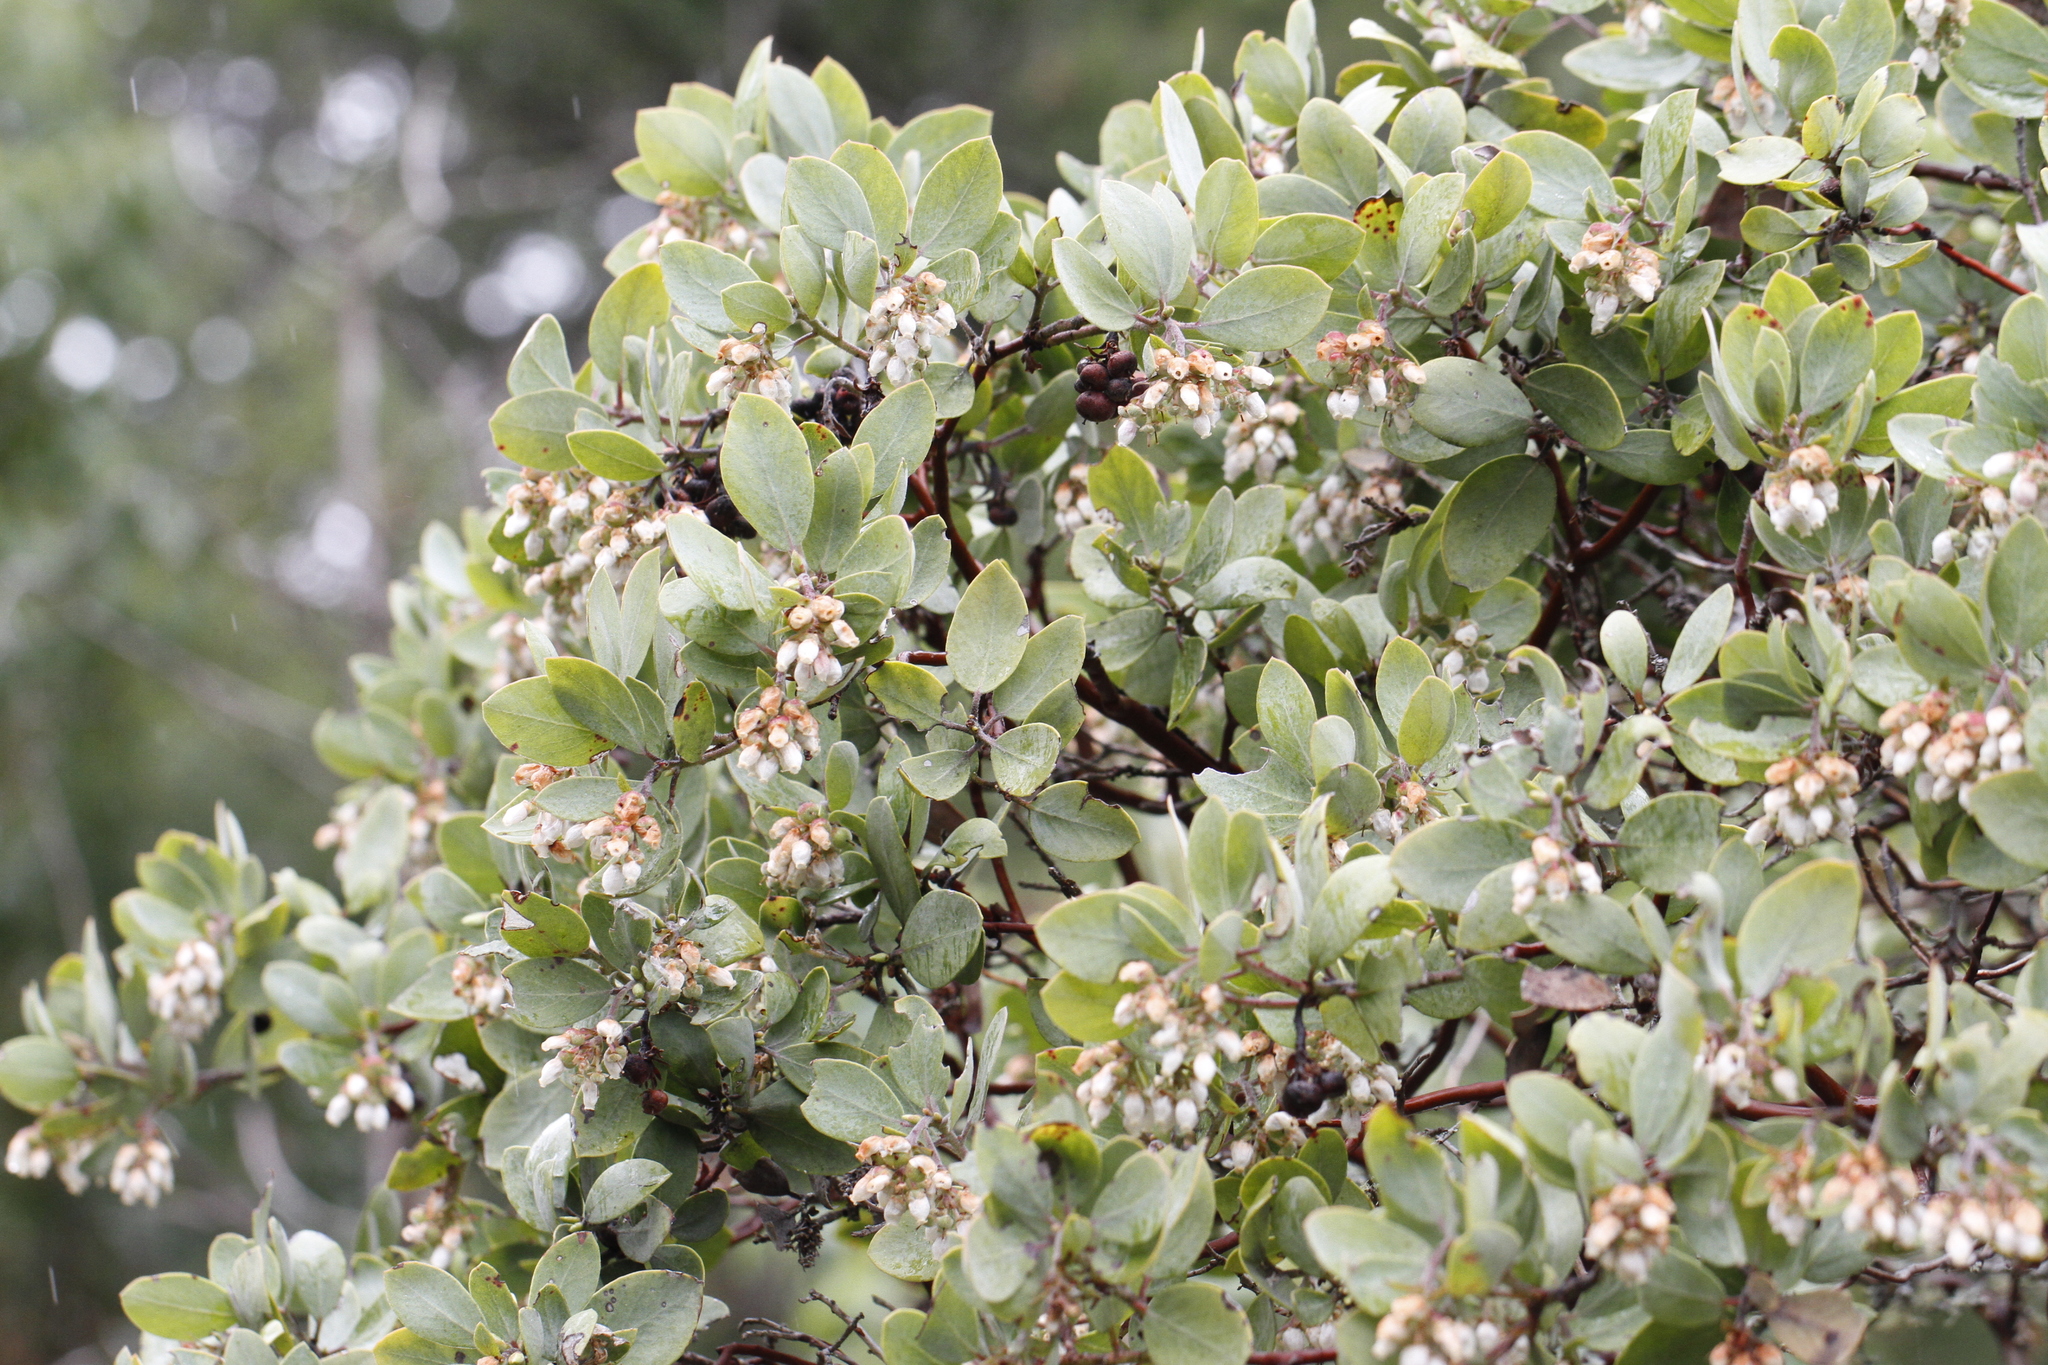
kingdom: Plantae
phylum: Tracheophyta
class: Magnoliopsida
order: Ericales
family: Ericaceae
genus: Arctostaphylos
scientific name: Arctostaphylos columbiana
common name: Bristly bearberry
